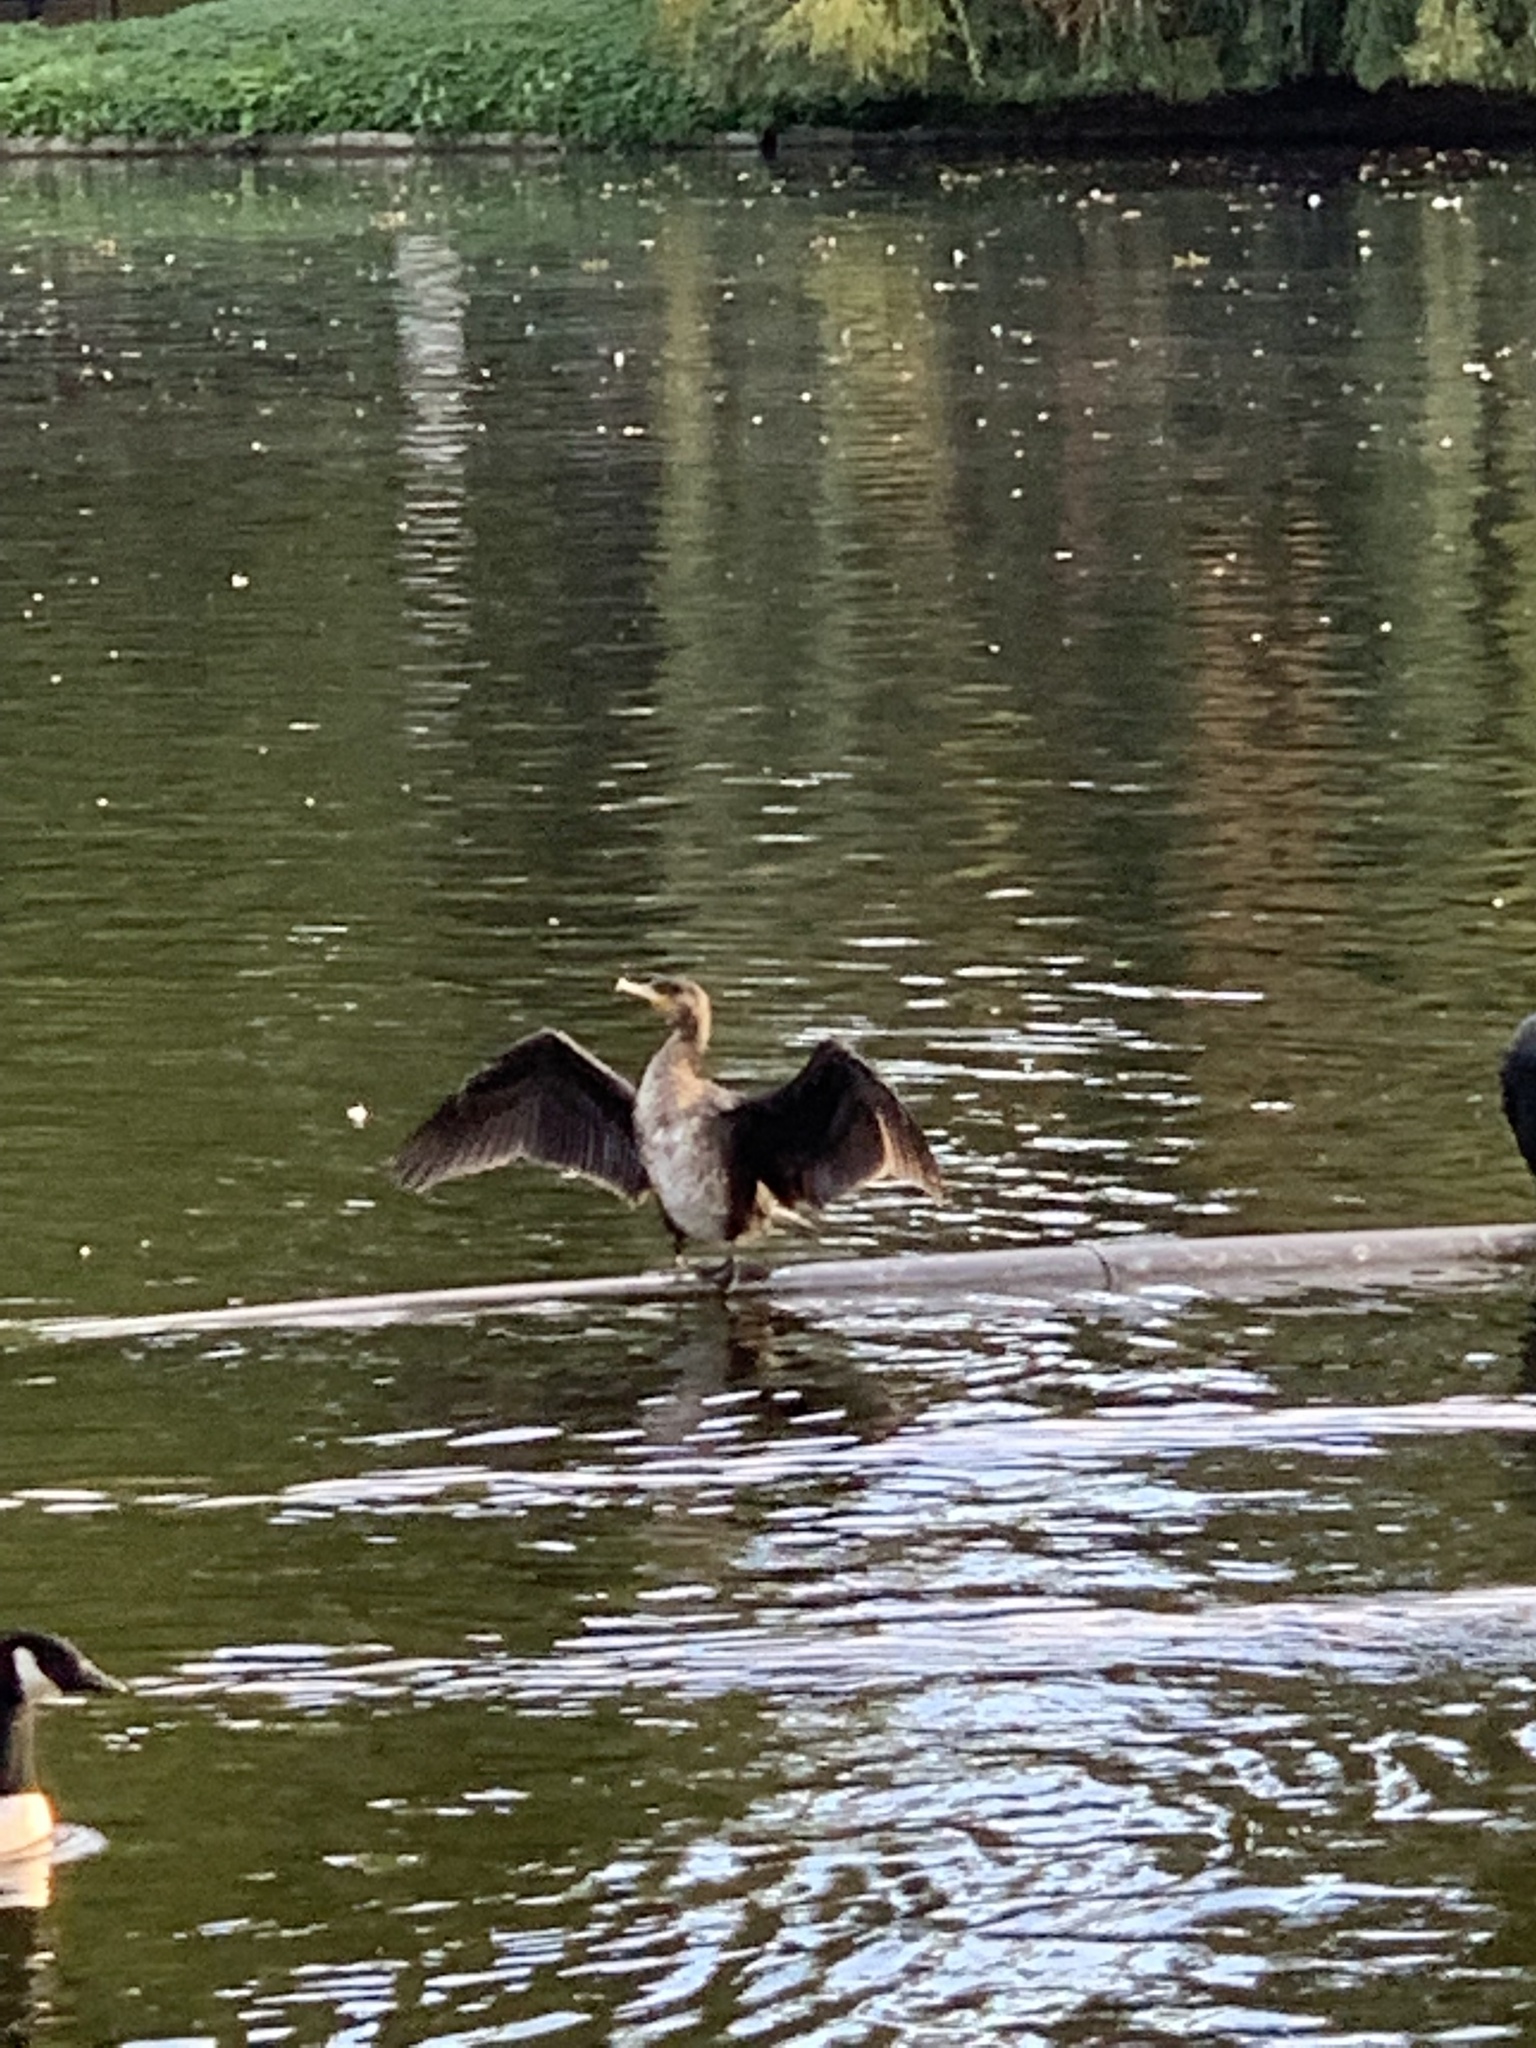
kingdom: Animalia
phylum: Chordata
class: Aves
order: Suliformes
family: Phalacrocoracidae
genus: Phalacrocorax
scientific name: Phalacrocorax carbo
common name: Great cormorant
